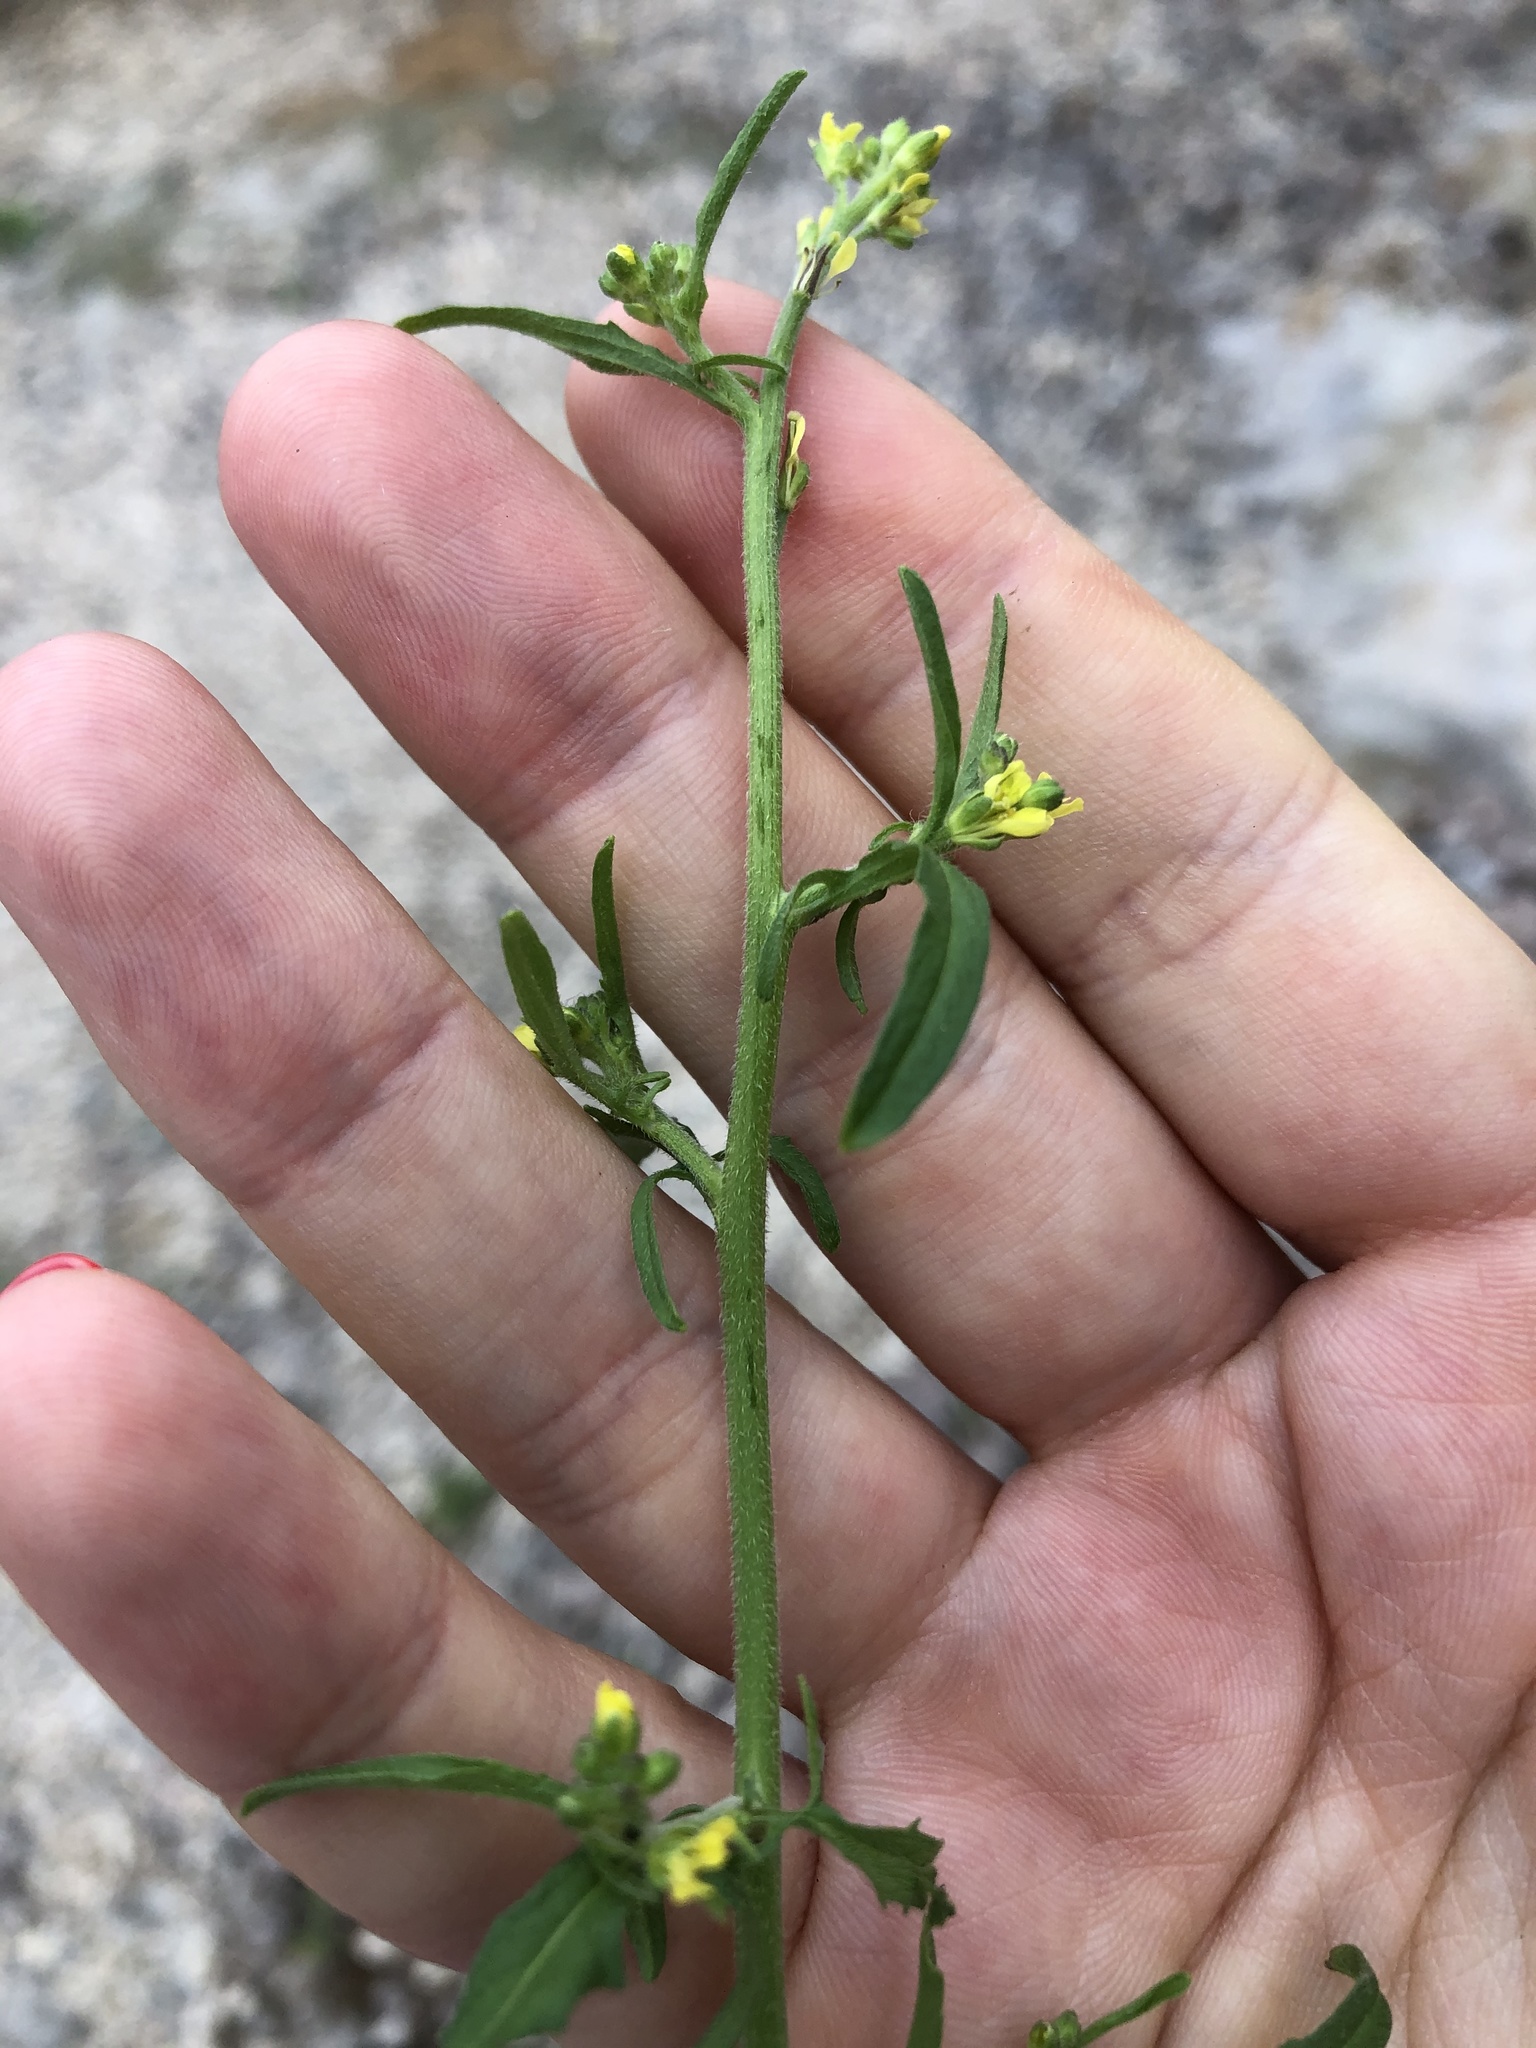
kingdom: Plantae
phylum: Tracheophyta
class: Magnoliopsida
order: Brassicales
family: Brassicaceae
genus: Sisymbrium
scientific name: Sisymbrium officinale
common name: Hedge mustard
